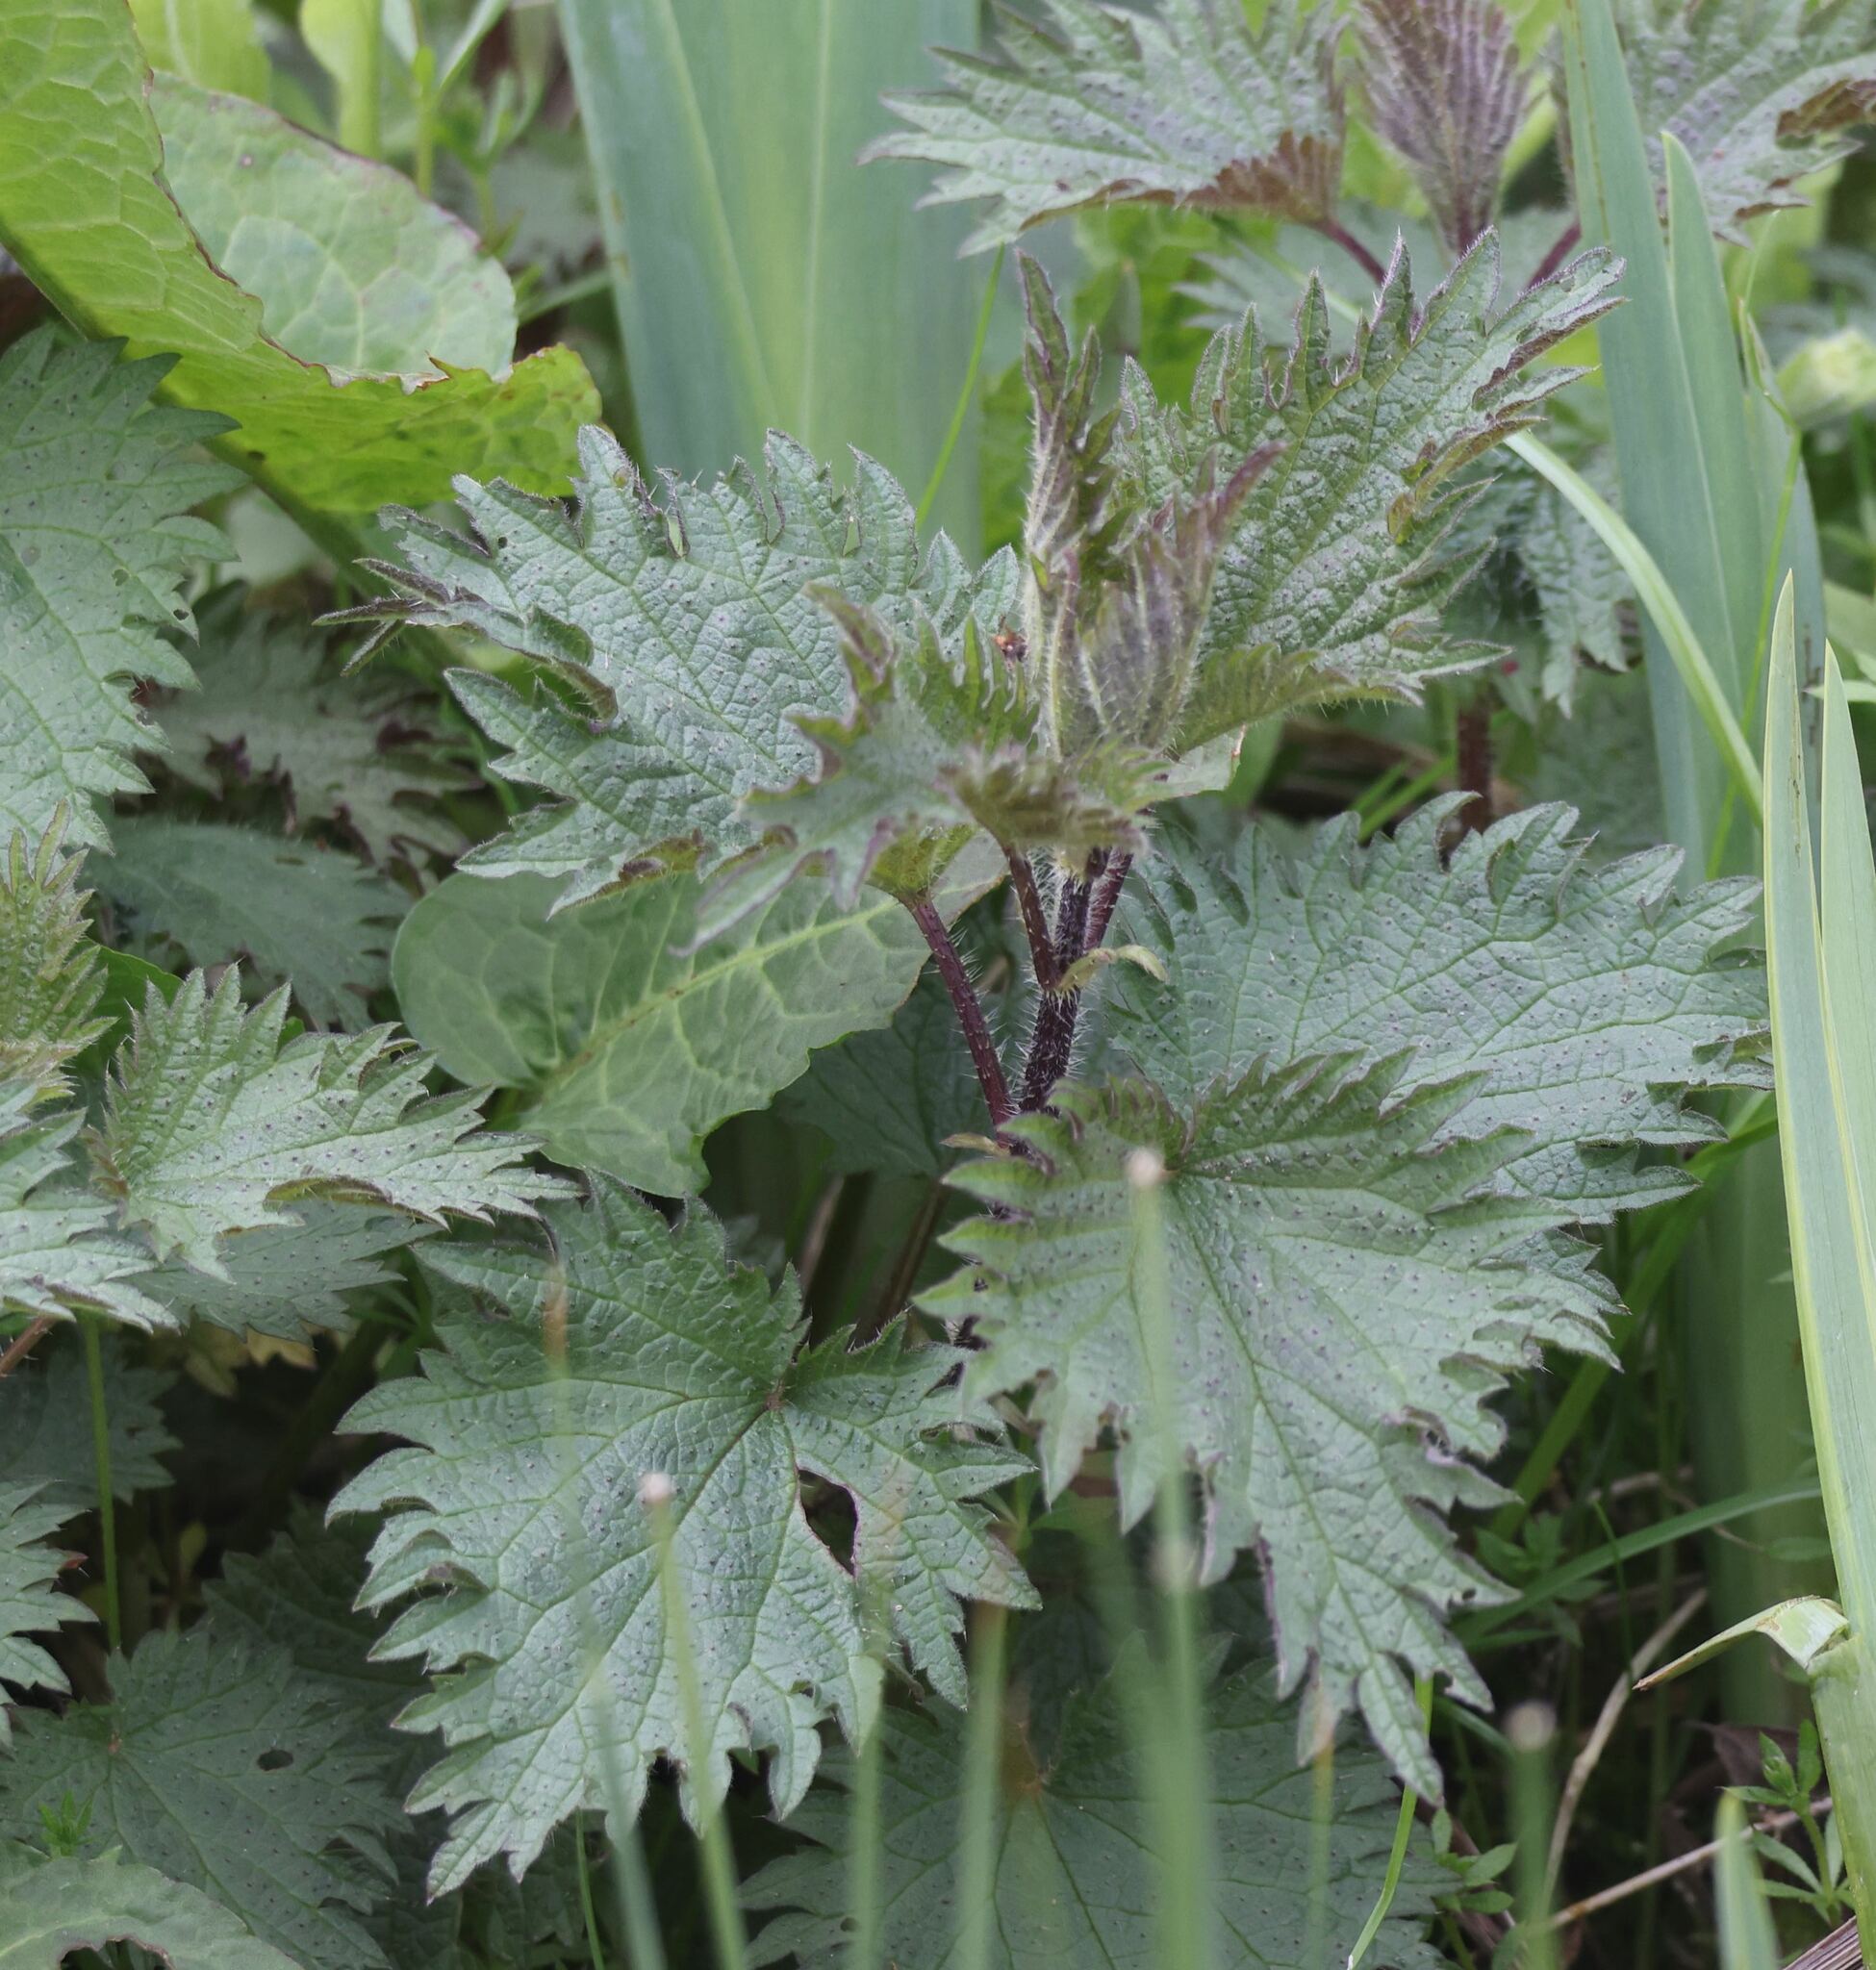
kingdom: Plantae
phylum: Tracheophyta
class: Magnoliopsida
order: Rosales
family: Urticaceae
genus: Urtica
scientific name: Urtica dioica
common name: Common nettle
